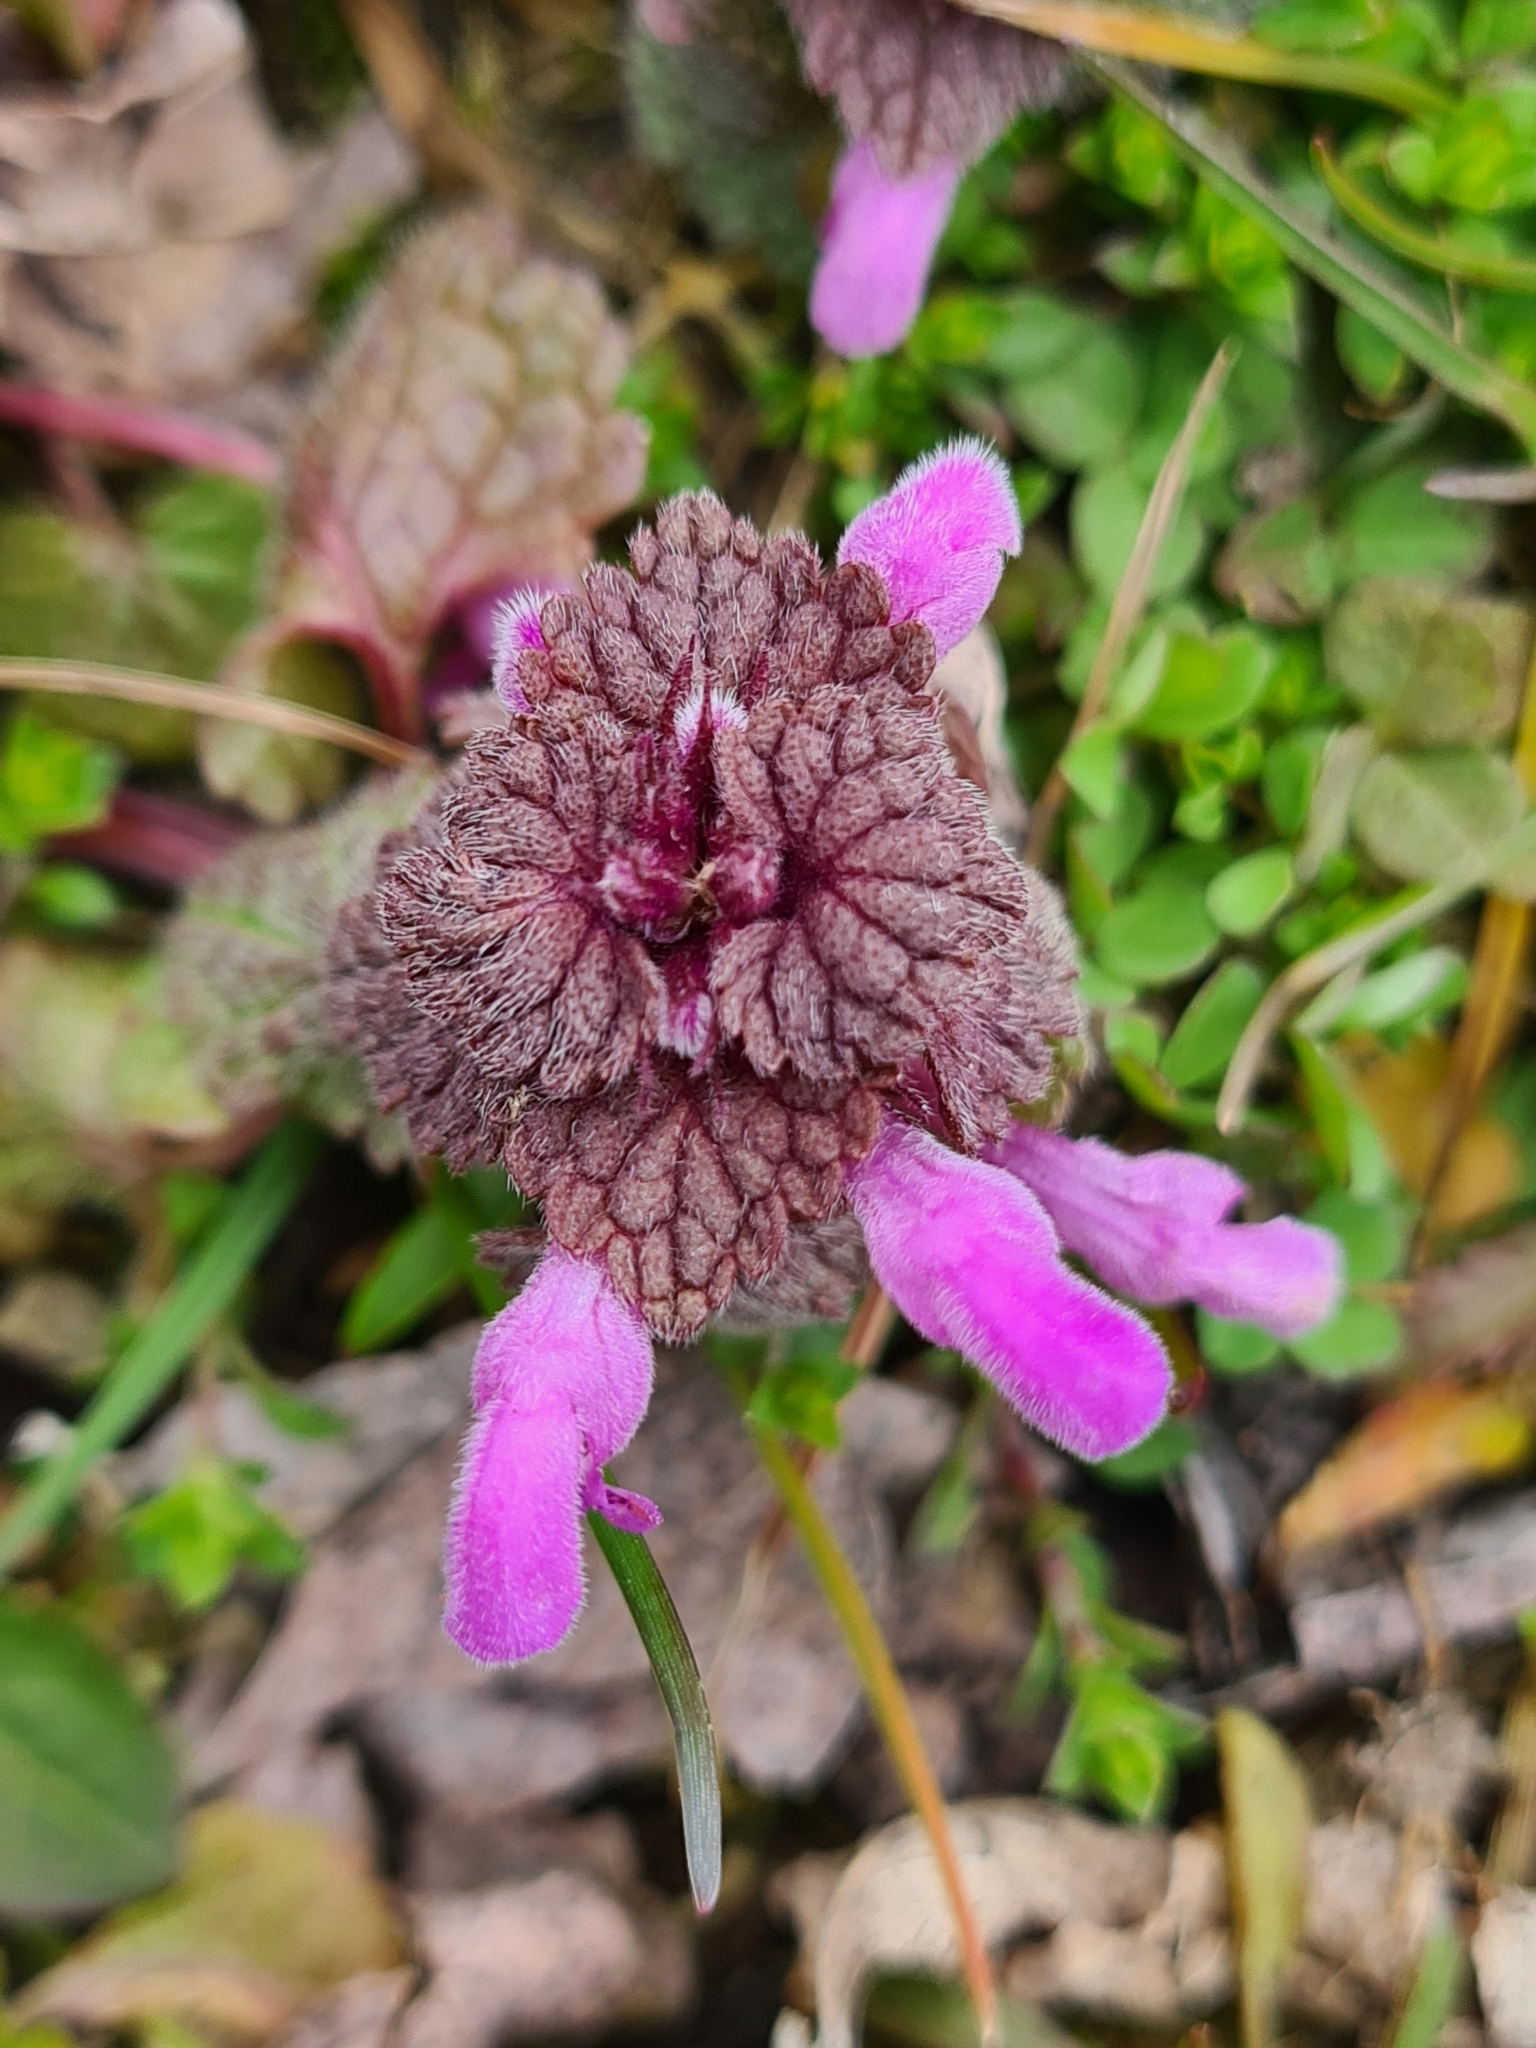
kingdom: Plantae
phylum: Tracheophyta
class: Magnoliopsida
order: Lamiales
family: Lamiaceae
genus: Lamium
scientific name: Lamium purpureum
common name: Red dead-nettle
